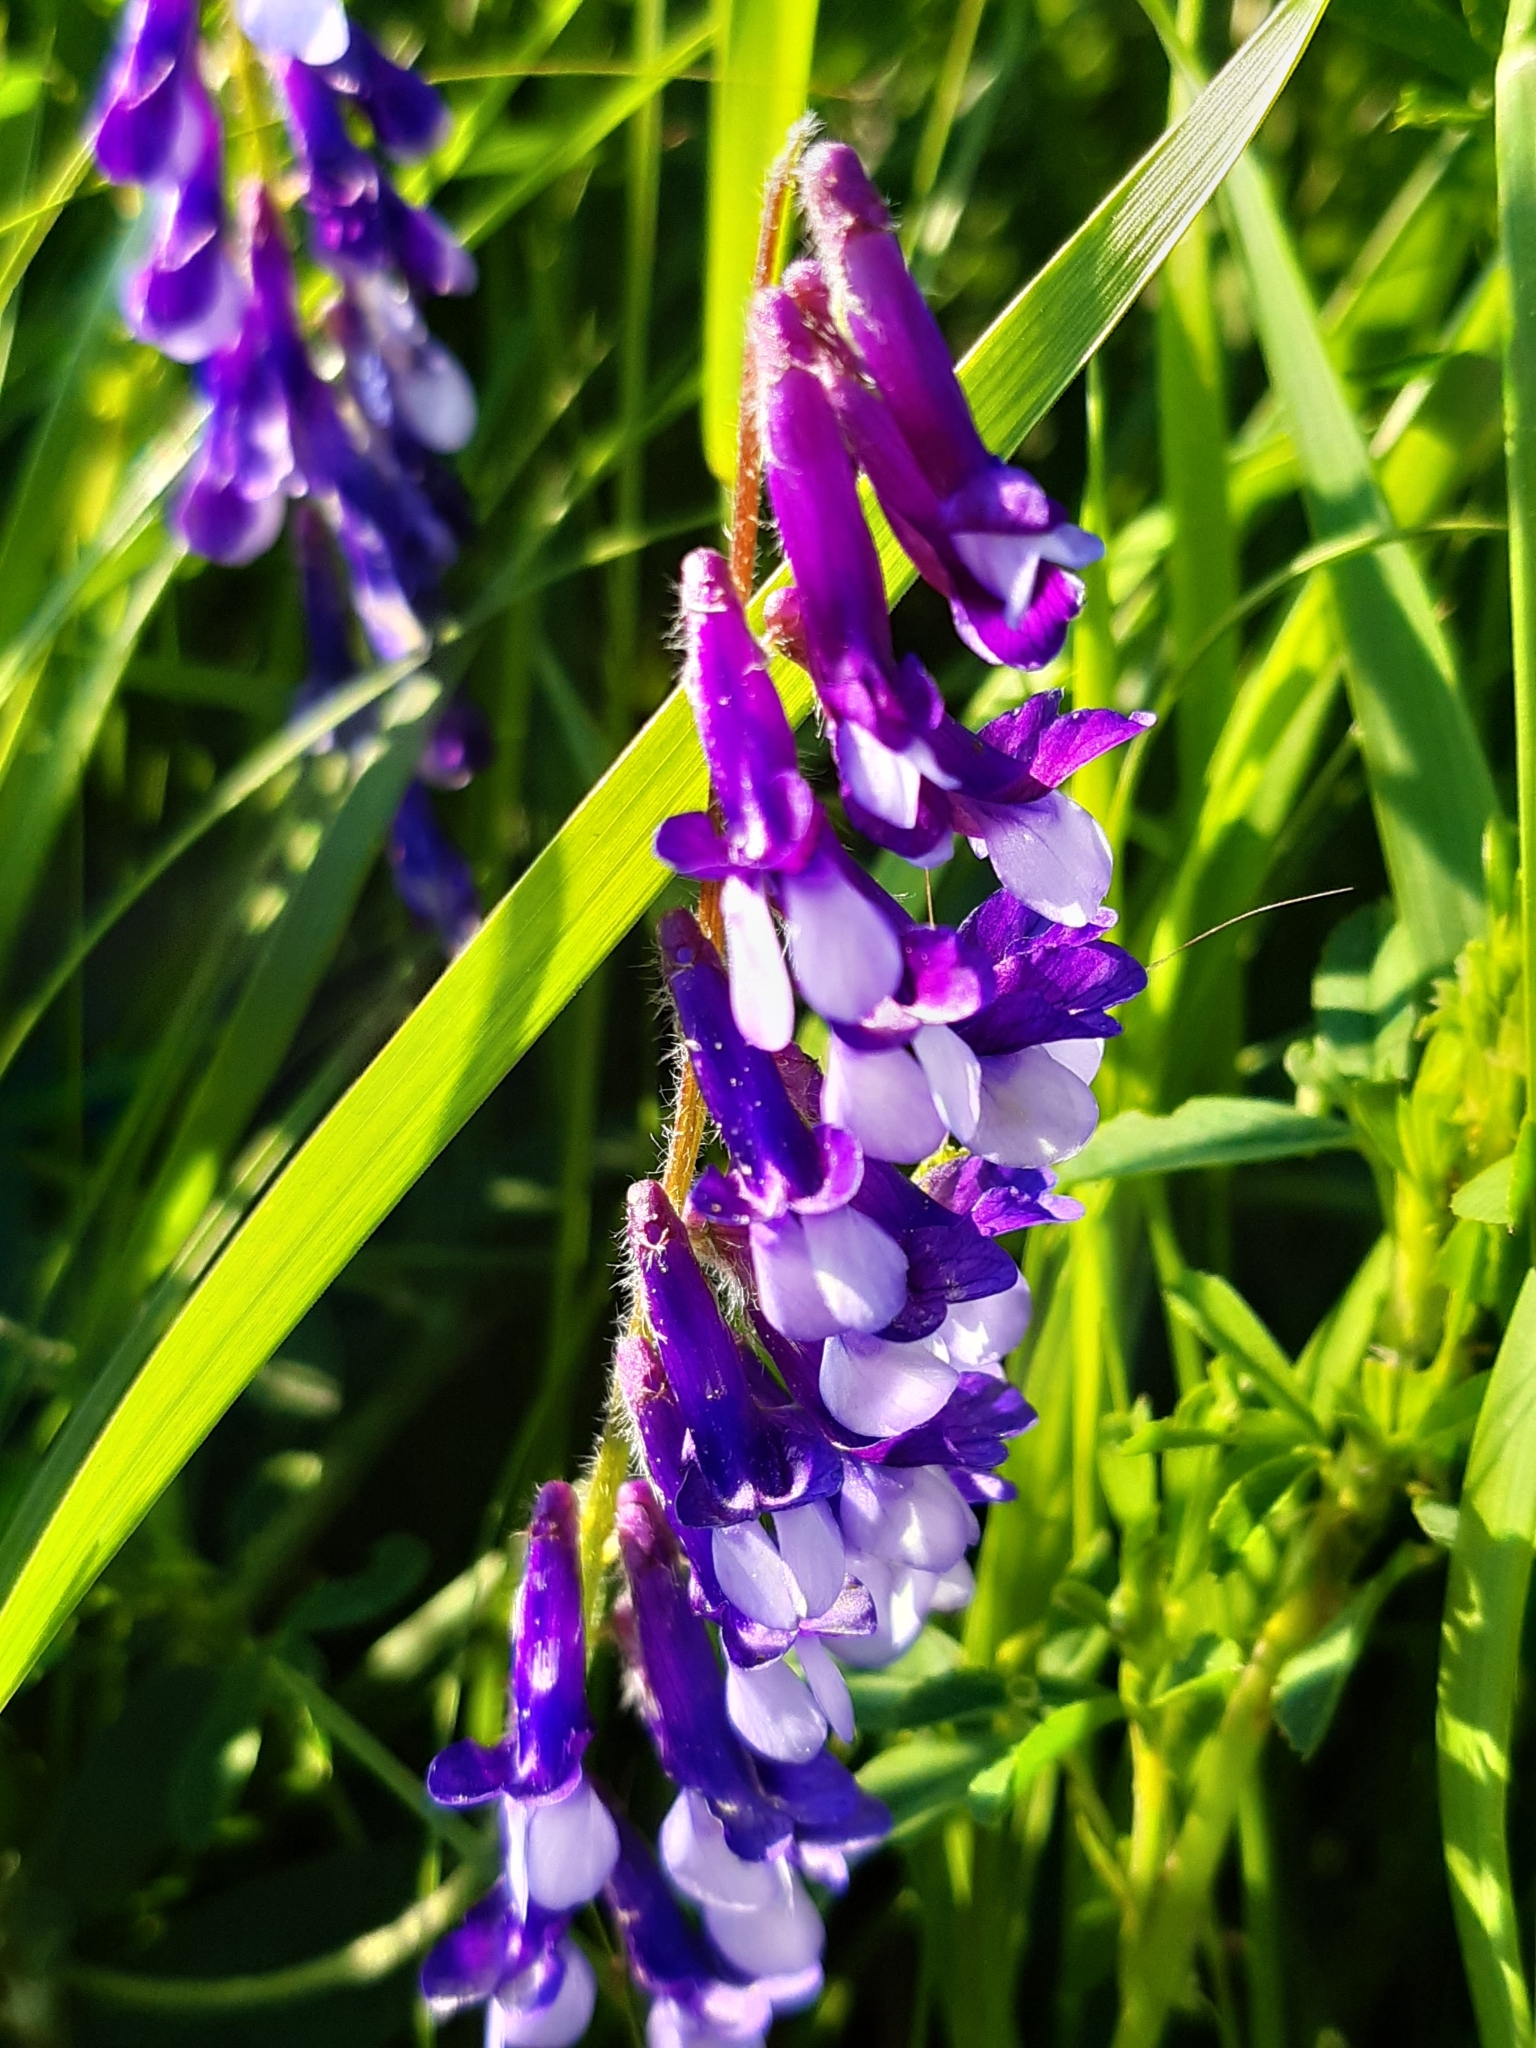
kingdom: Plantae
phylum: Tracheophyta
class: Magnoliopsida
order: Fabales
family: Fabaceae
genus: Vicia
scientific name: Vicia villosa
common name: Fodder vetch
